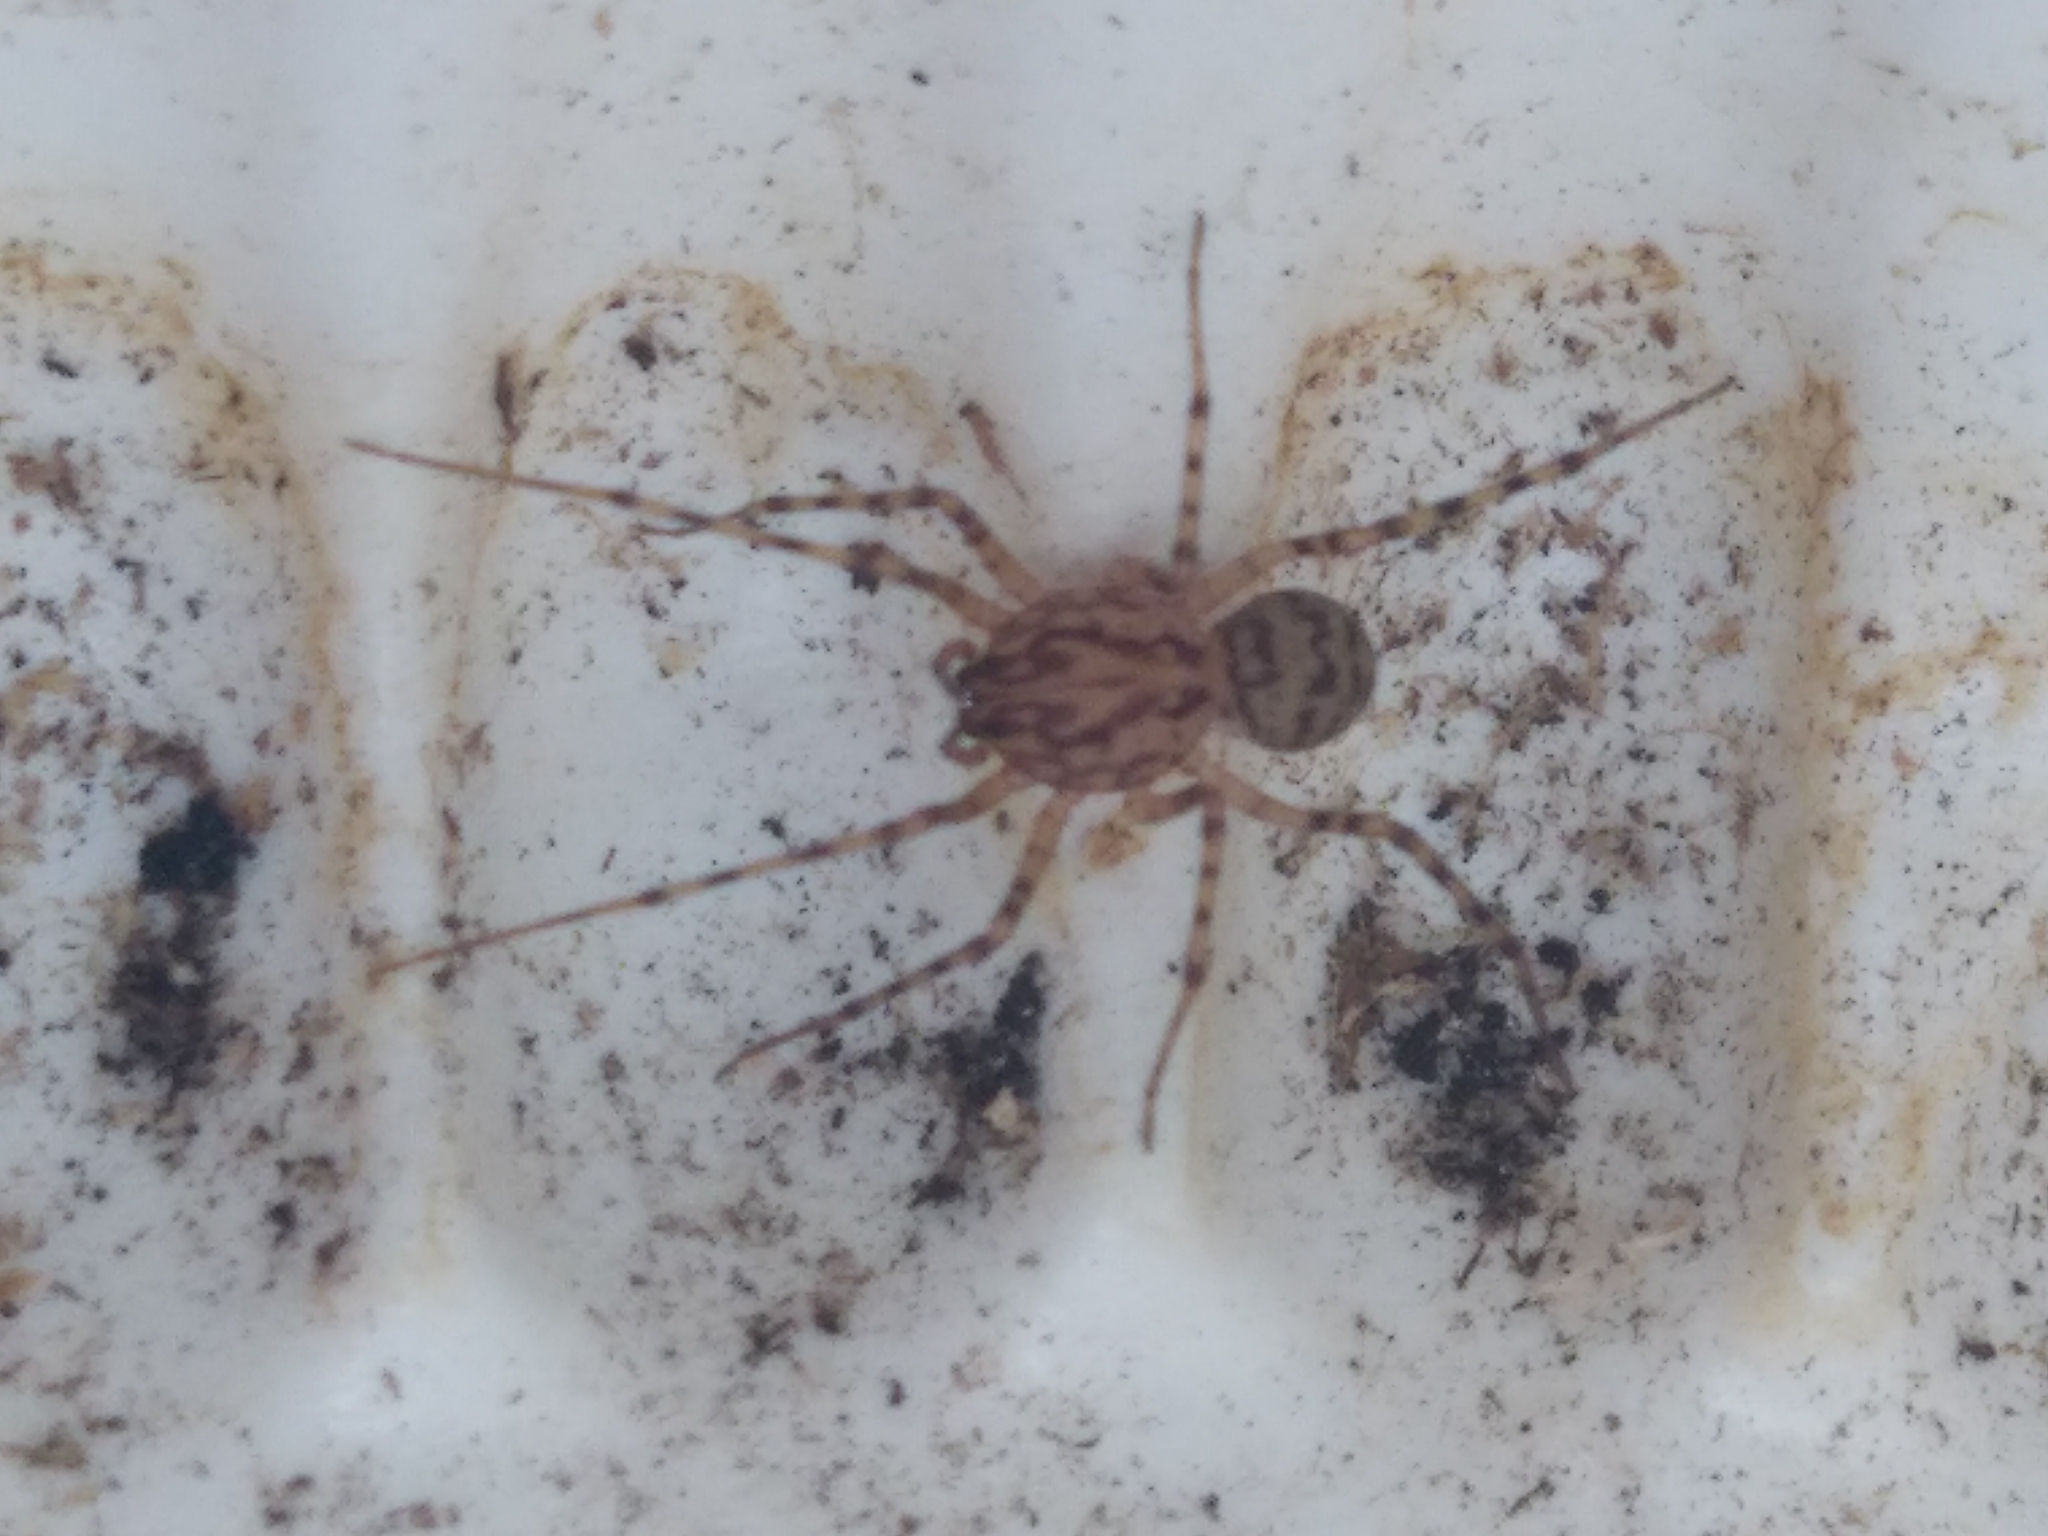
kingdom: Animalia
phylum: Arthropoda
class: Arachnida
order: Araneae
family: Scytodidae
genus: Scytodes
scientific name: Scytodes thoracica
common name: Spitting spider
